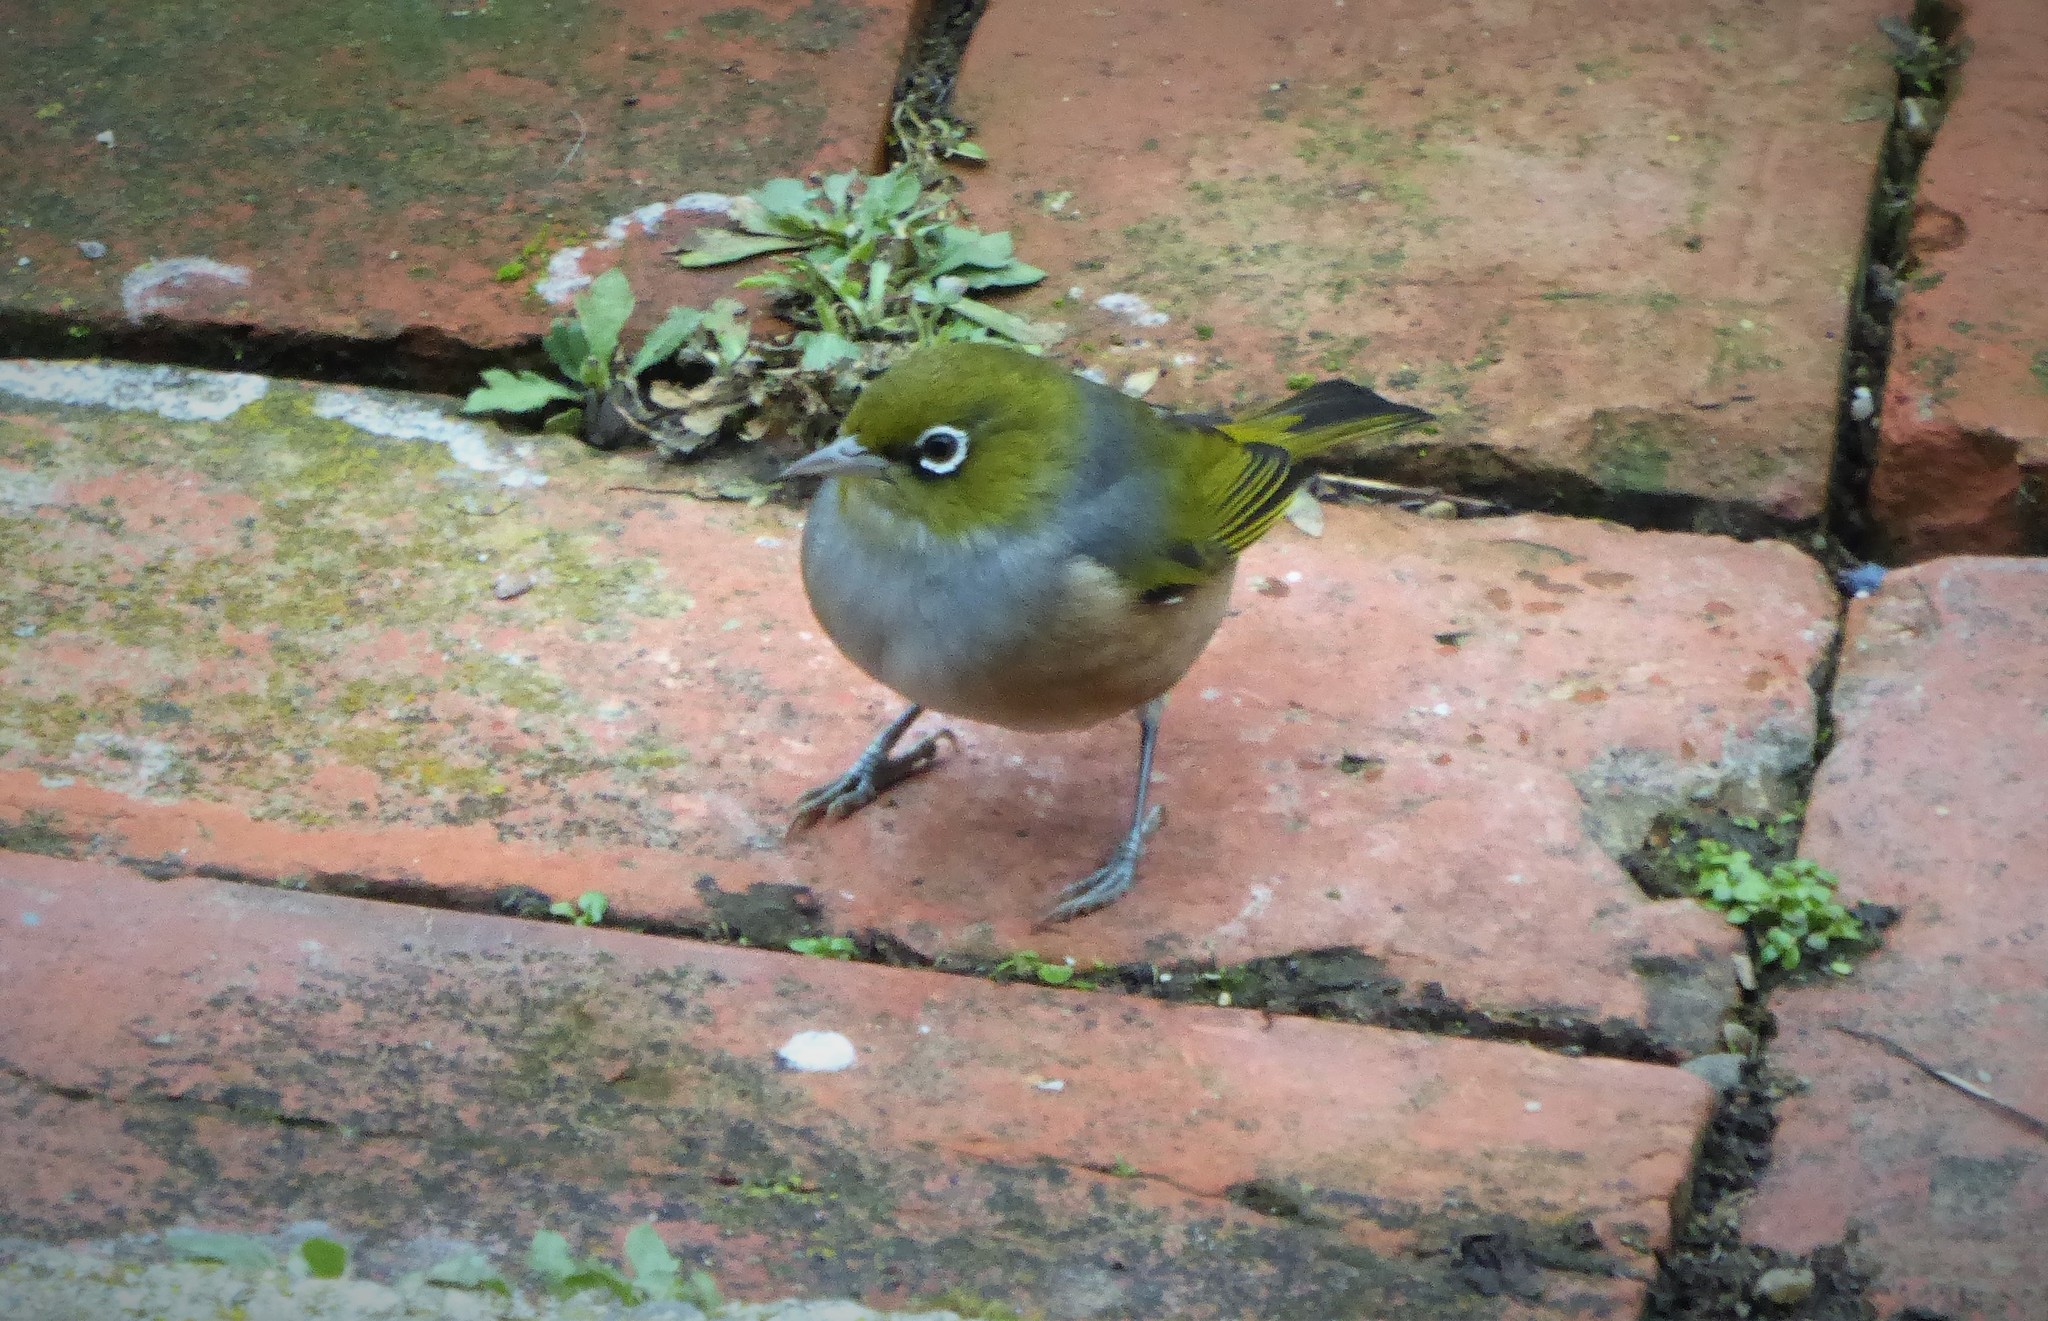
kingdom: Animalia
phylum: Chordata
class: Aves
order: Passeriformes
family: Zosteropidae
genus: Zosterops
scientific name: Zosterops lateralis
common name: Silvereye
